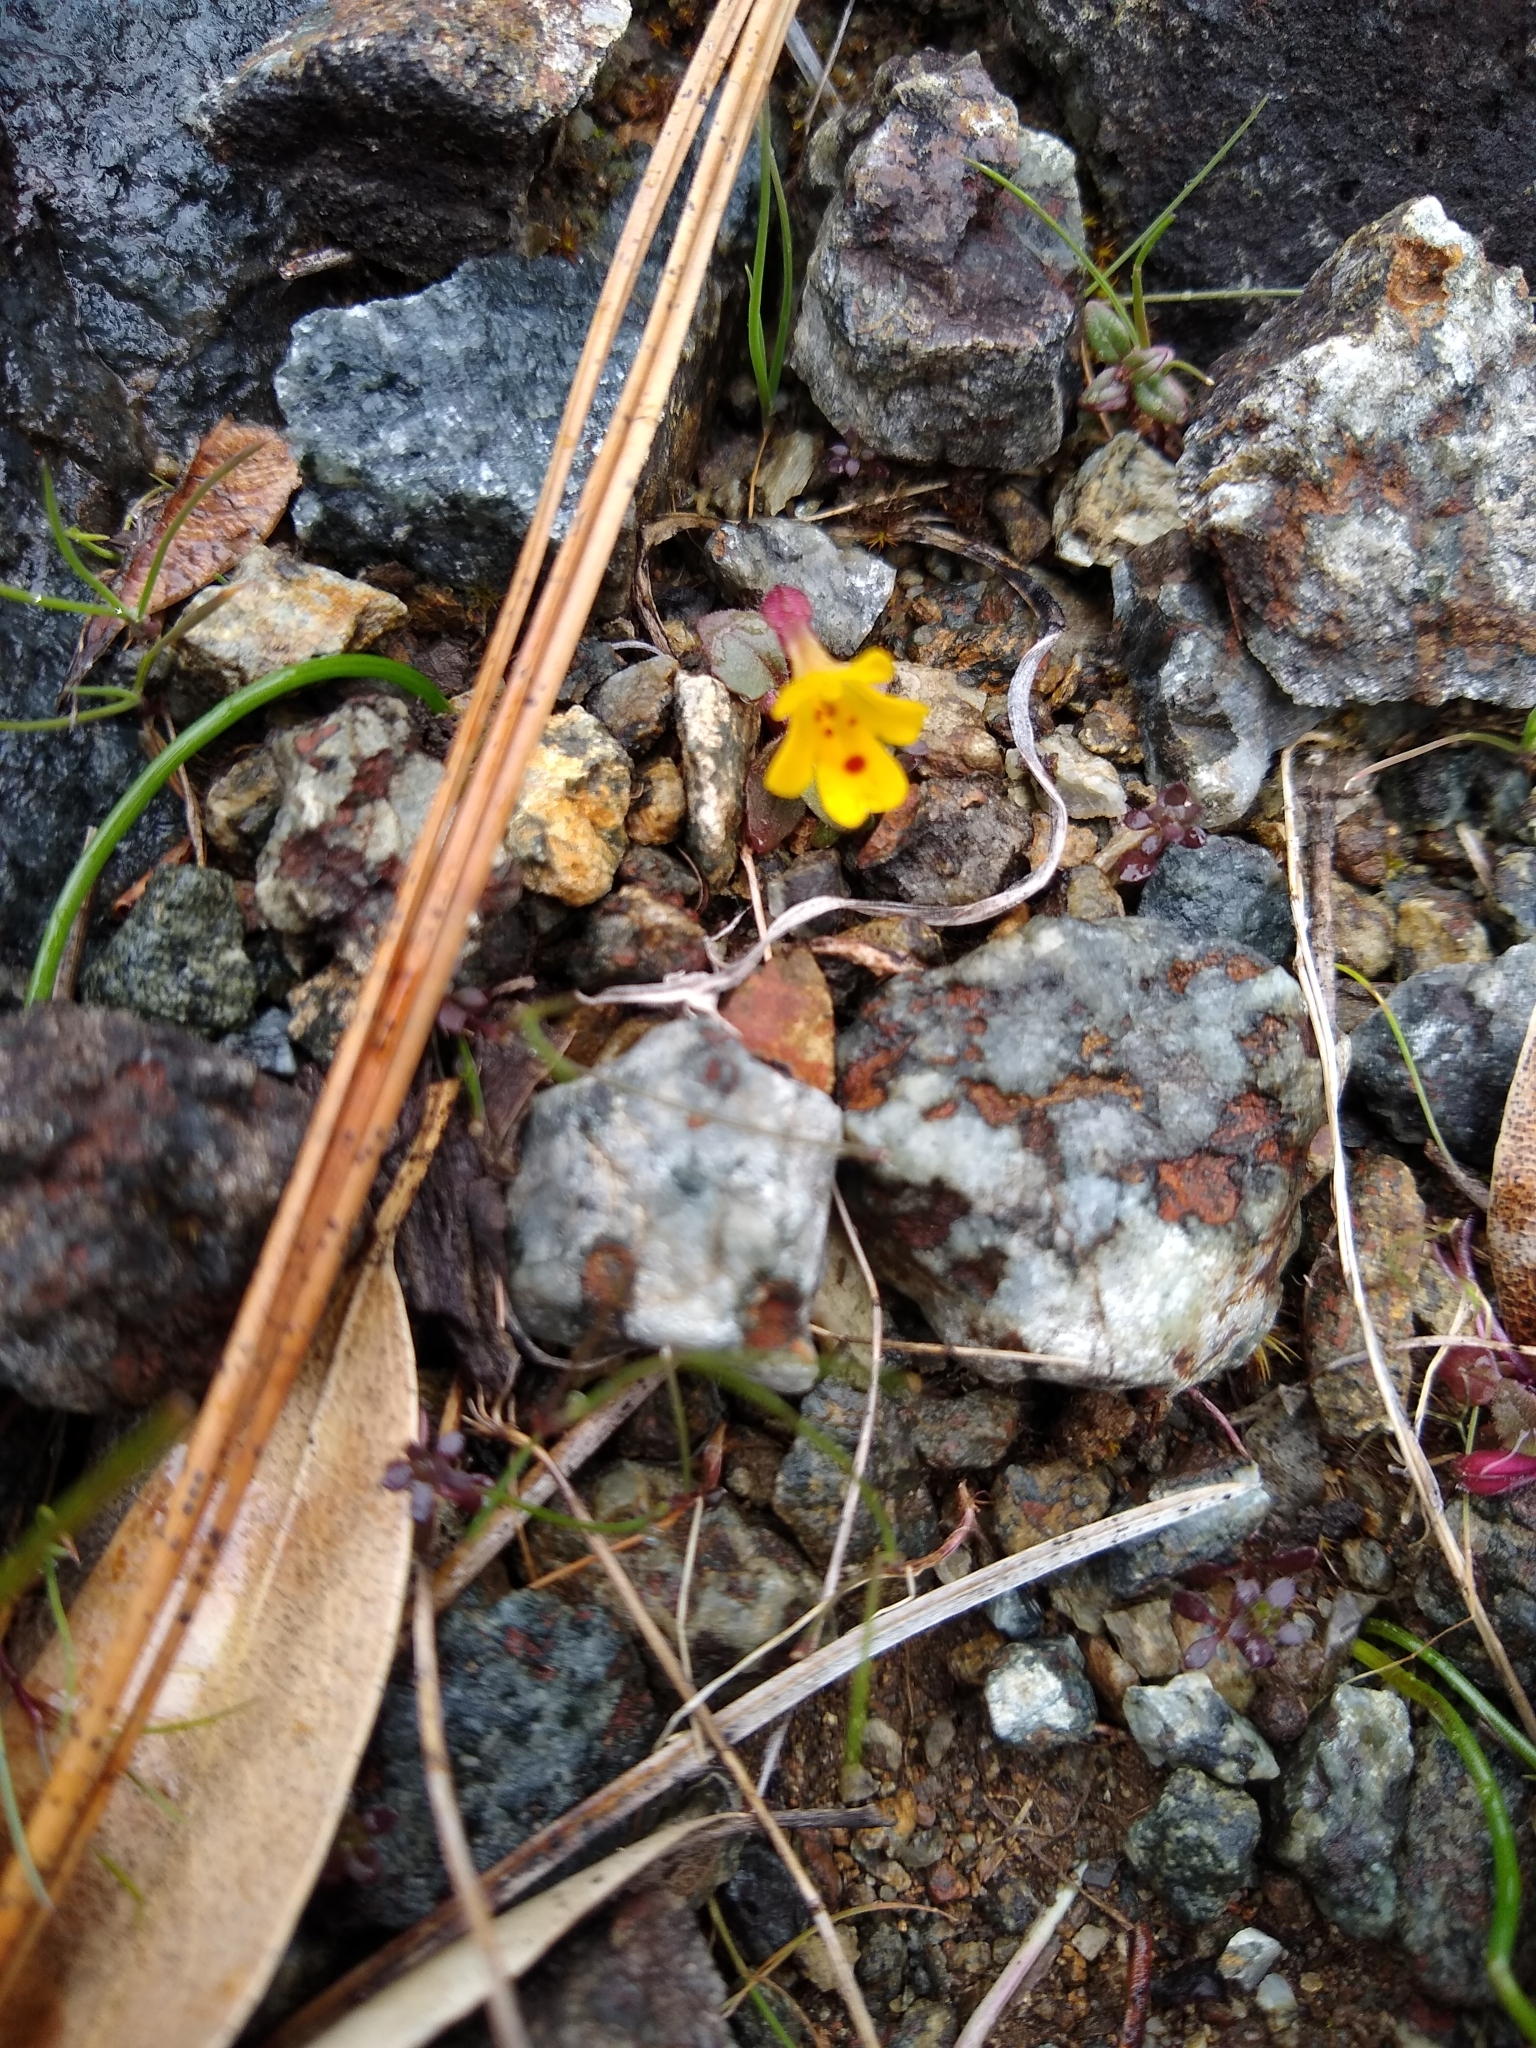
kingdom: Plantae
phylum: Tracheophyta
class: Magnoliopsida
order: Lamiales
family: Phrymaceae
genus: Erythranthe
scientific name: Erythranthe alsinoides
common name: Chickweed monkeyflower
